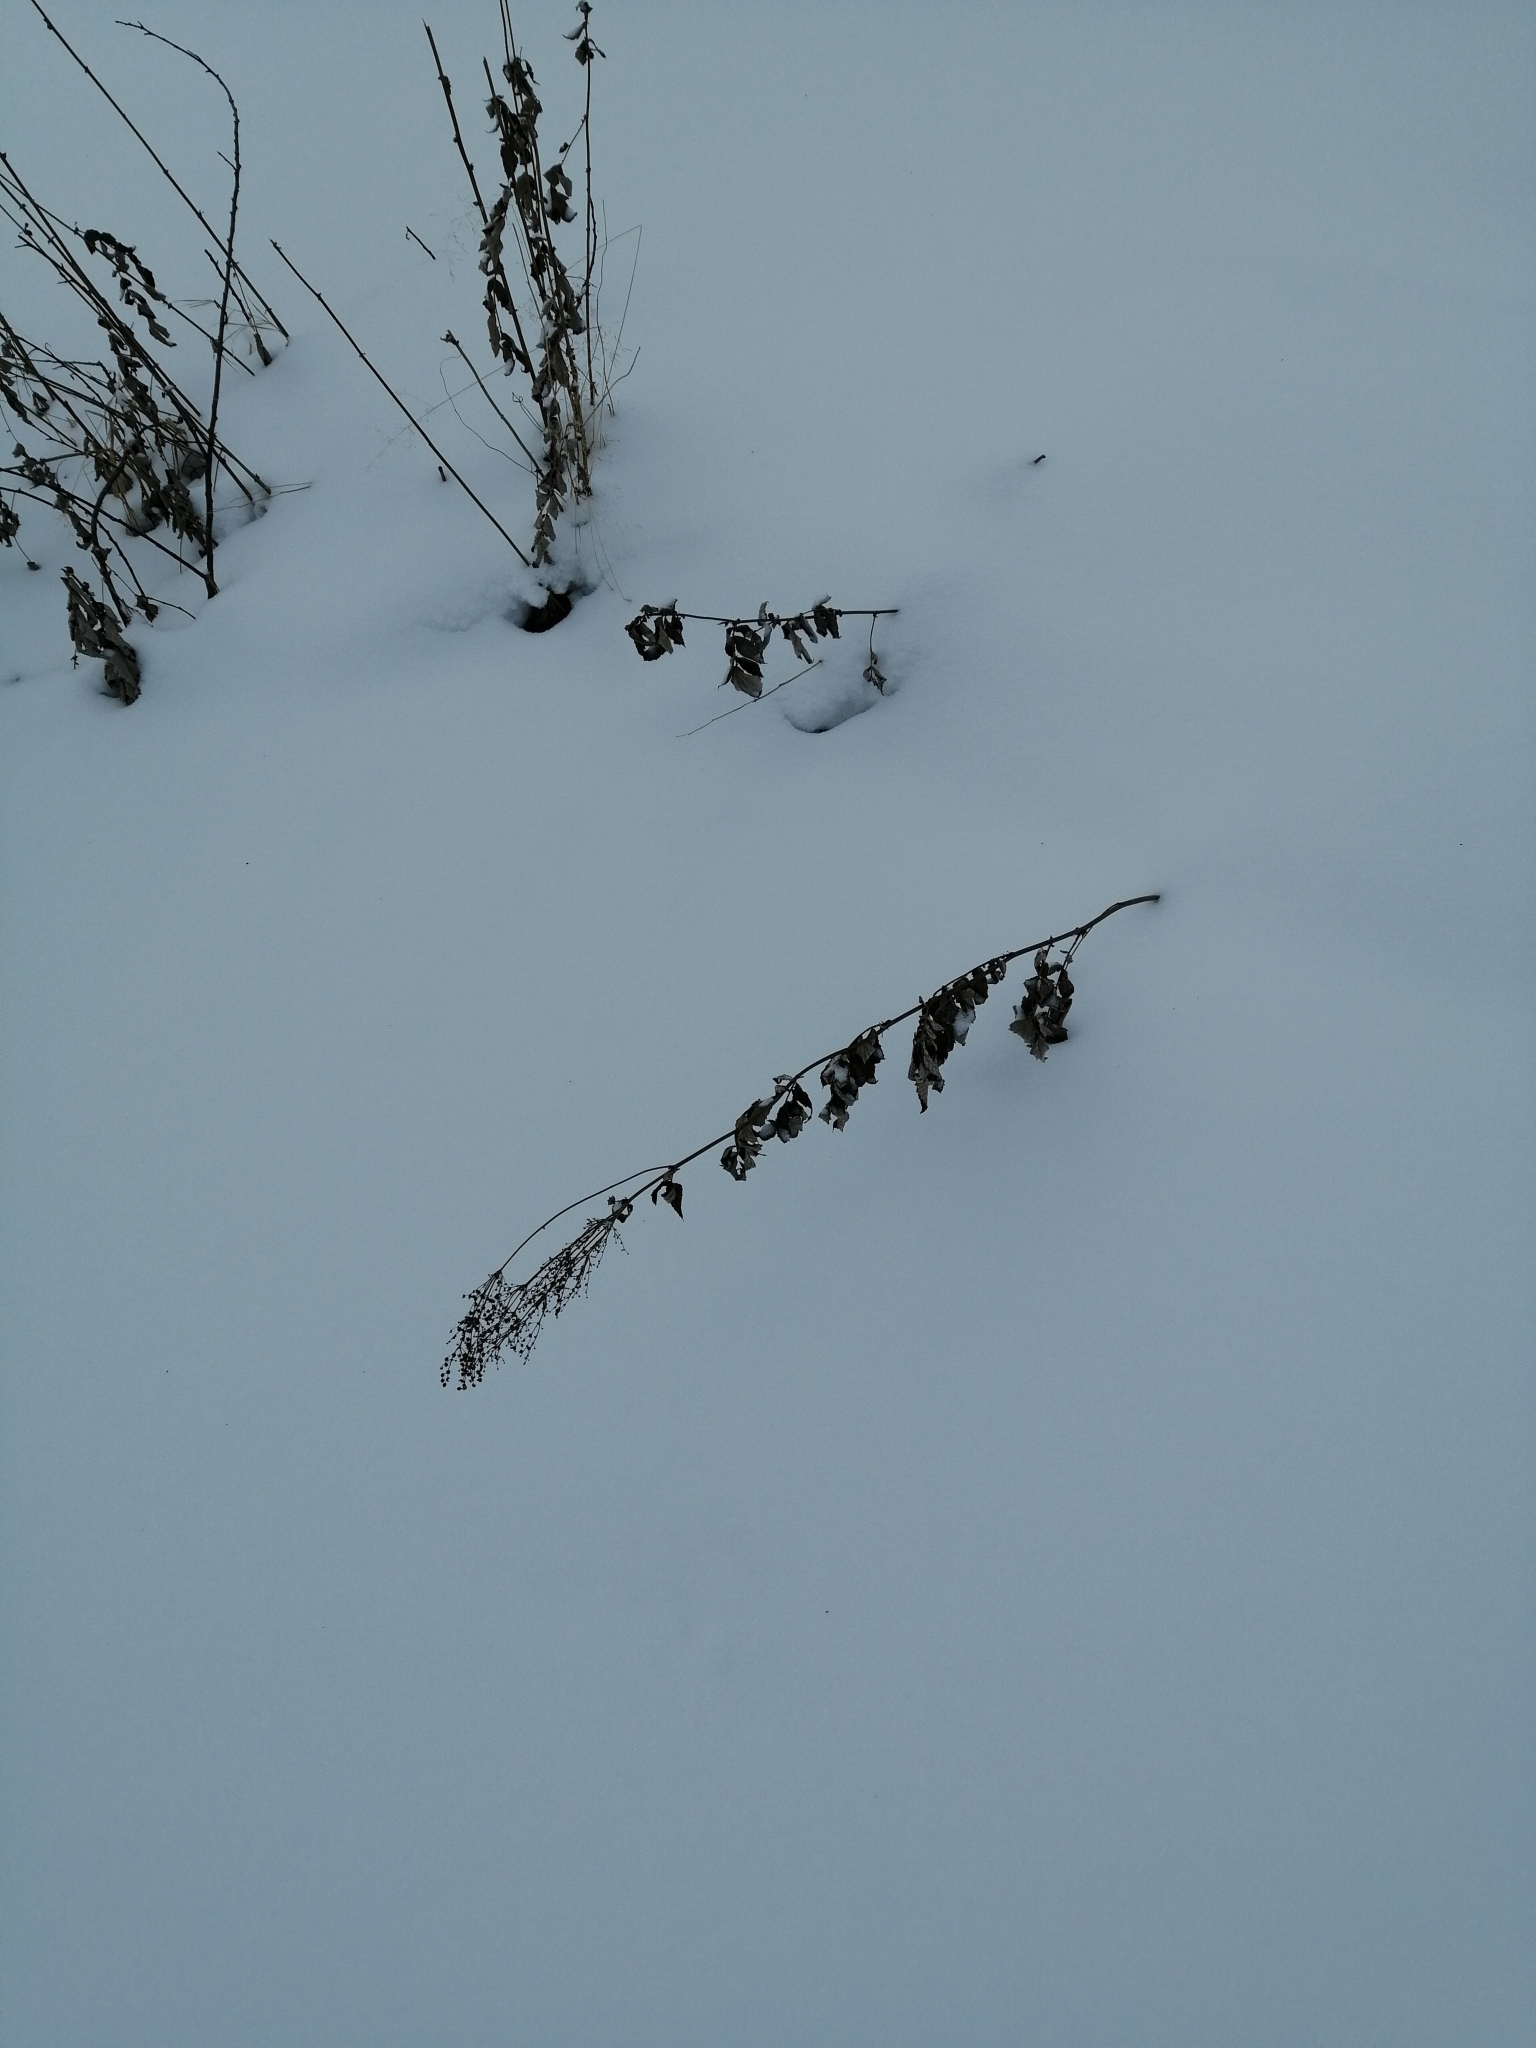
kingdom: Plantae
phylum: Tracheophyta
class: Magnoliopsida
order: Rosales
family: Rosaceae
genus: Filipendula
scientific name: Filipendula ulmaria
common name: Meadowsweet
